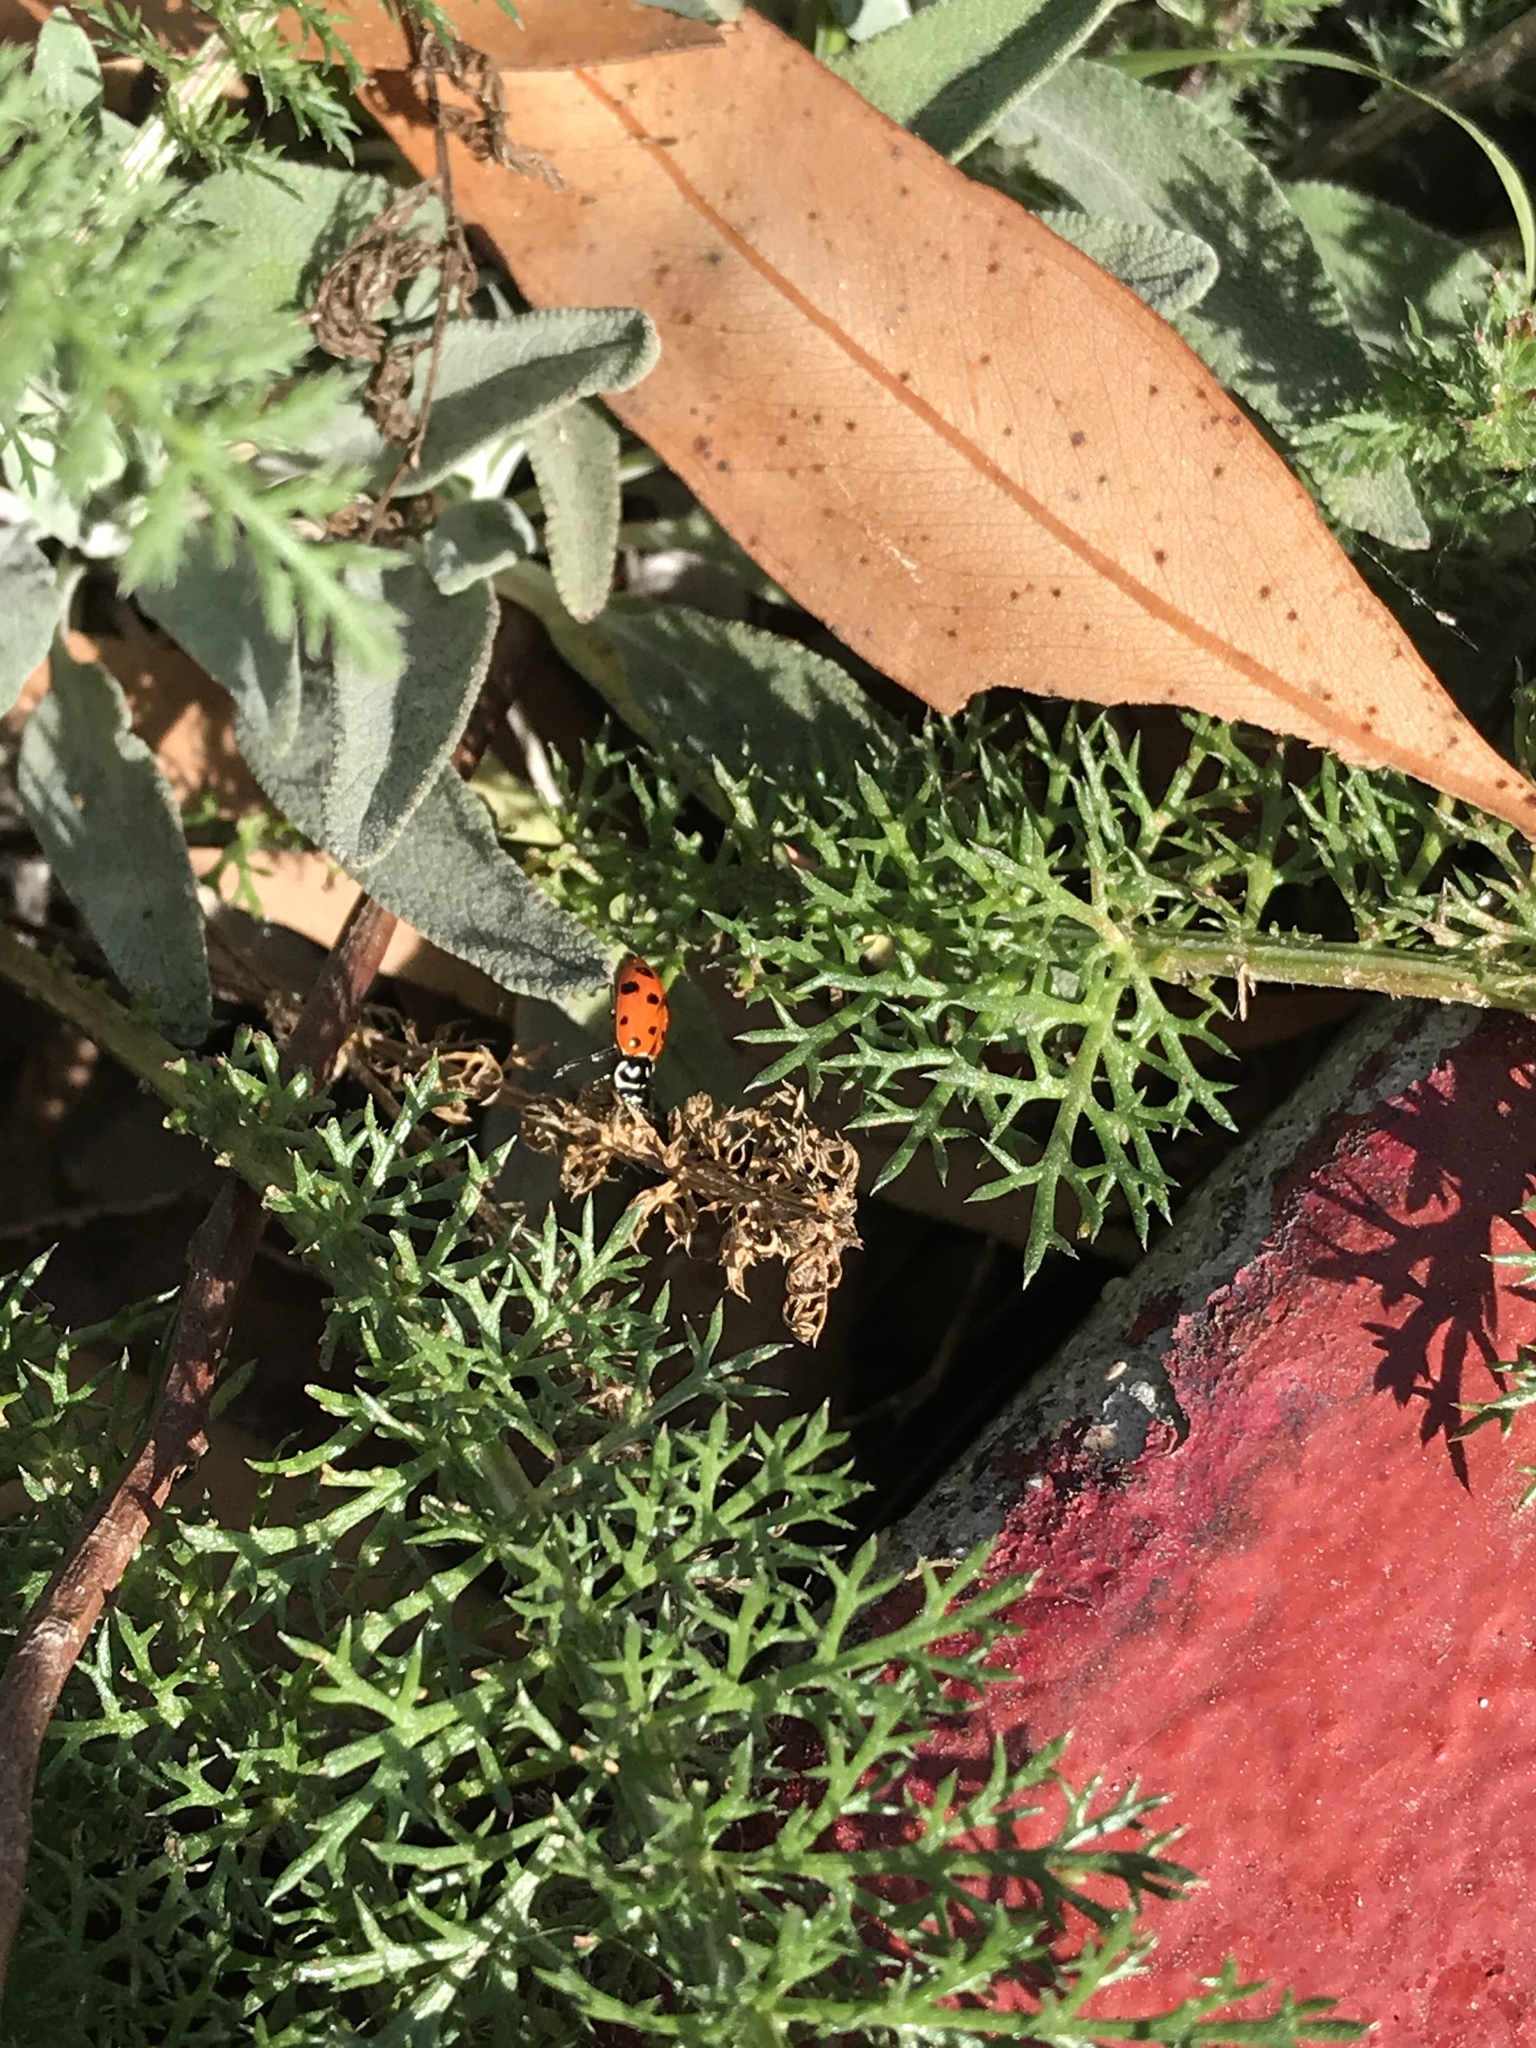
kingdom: Animalia
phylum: Arthropoda
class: Insecta
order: Coleoptera
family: Coccinellidae
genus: Hippodamia
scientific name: Hippodamia convergens
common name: Convergent lady beetle
